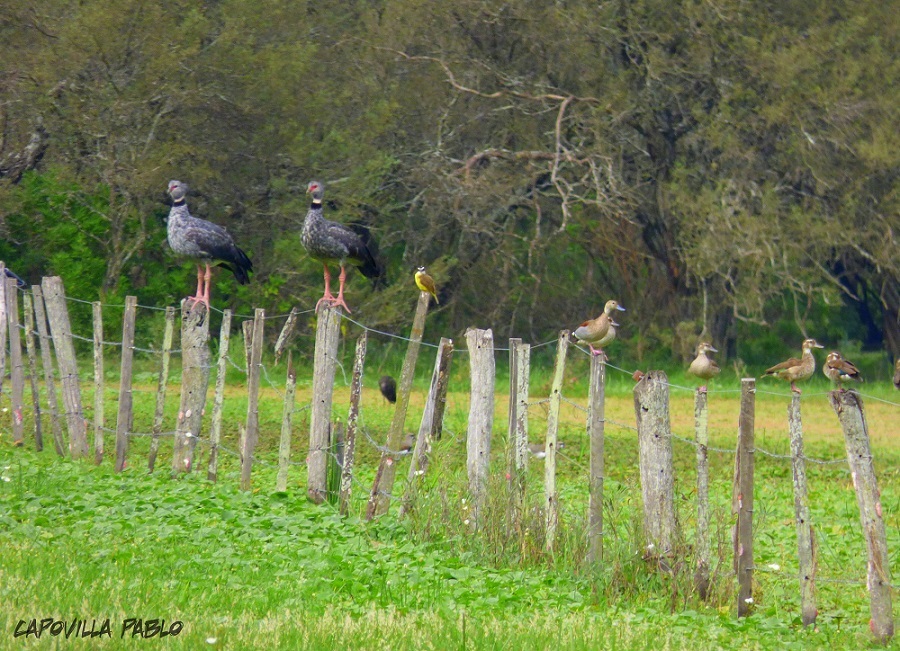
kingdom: Animalia
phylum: Chordata
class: Aves
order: Anseriformes
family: Anhimidae
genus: Chauna
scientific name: Chauna torquata
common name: Southern screamer
